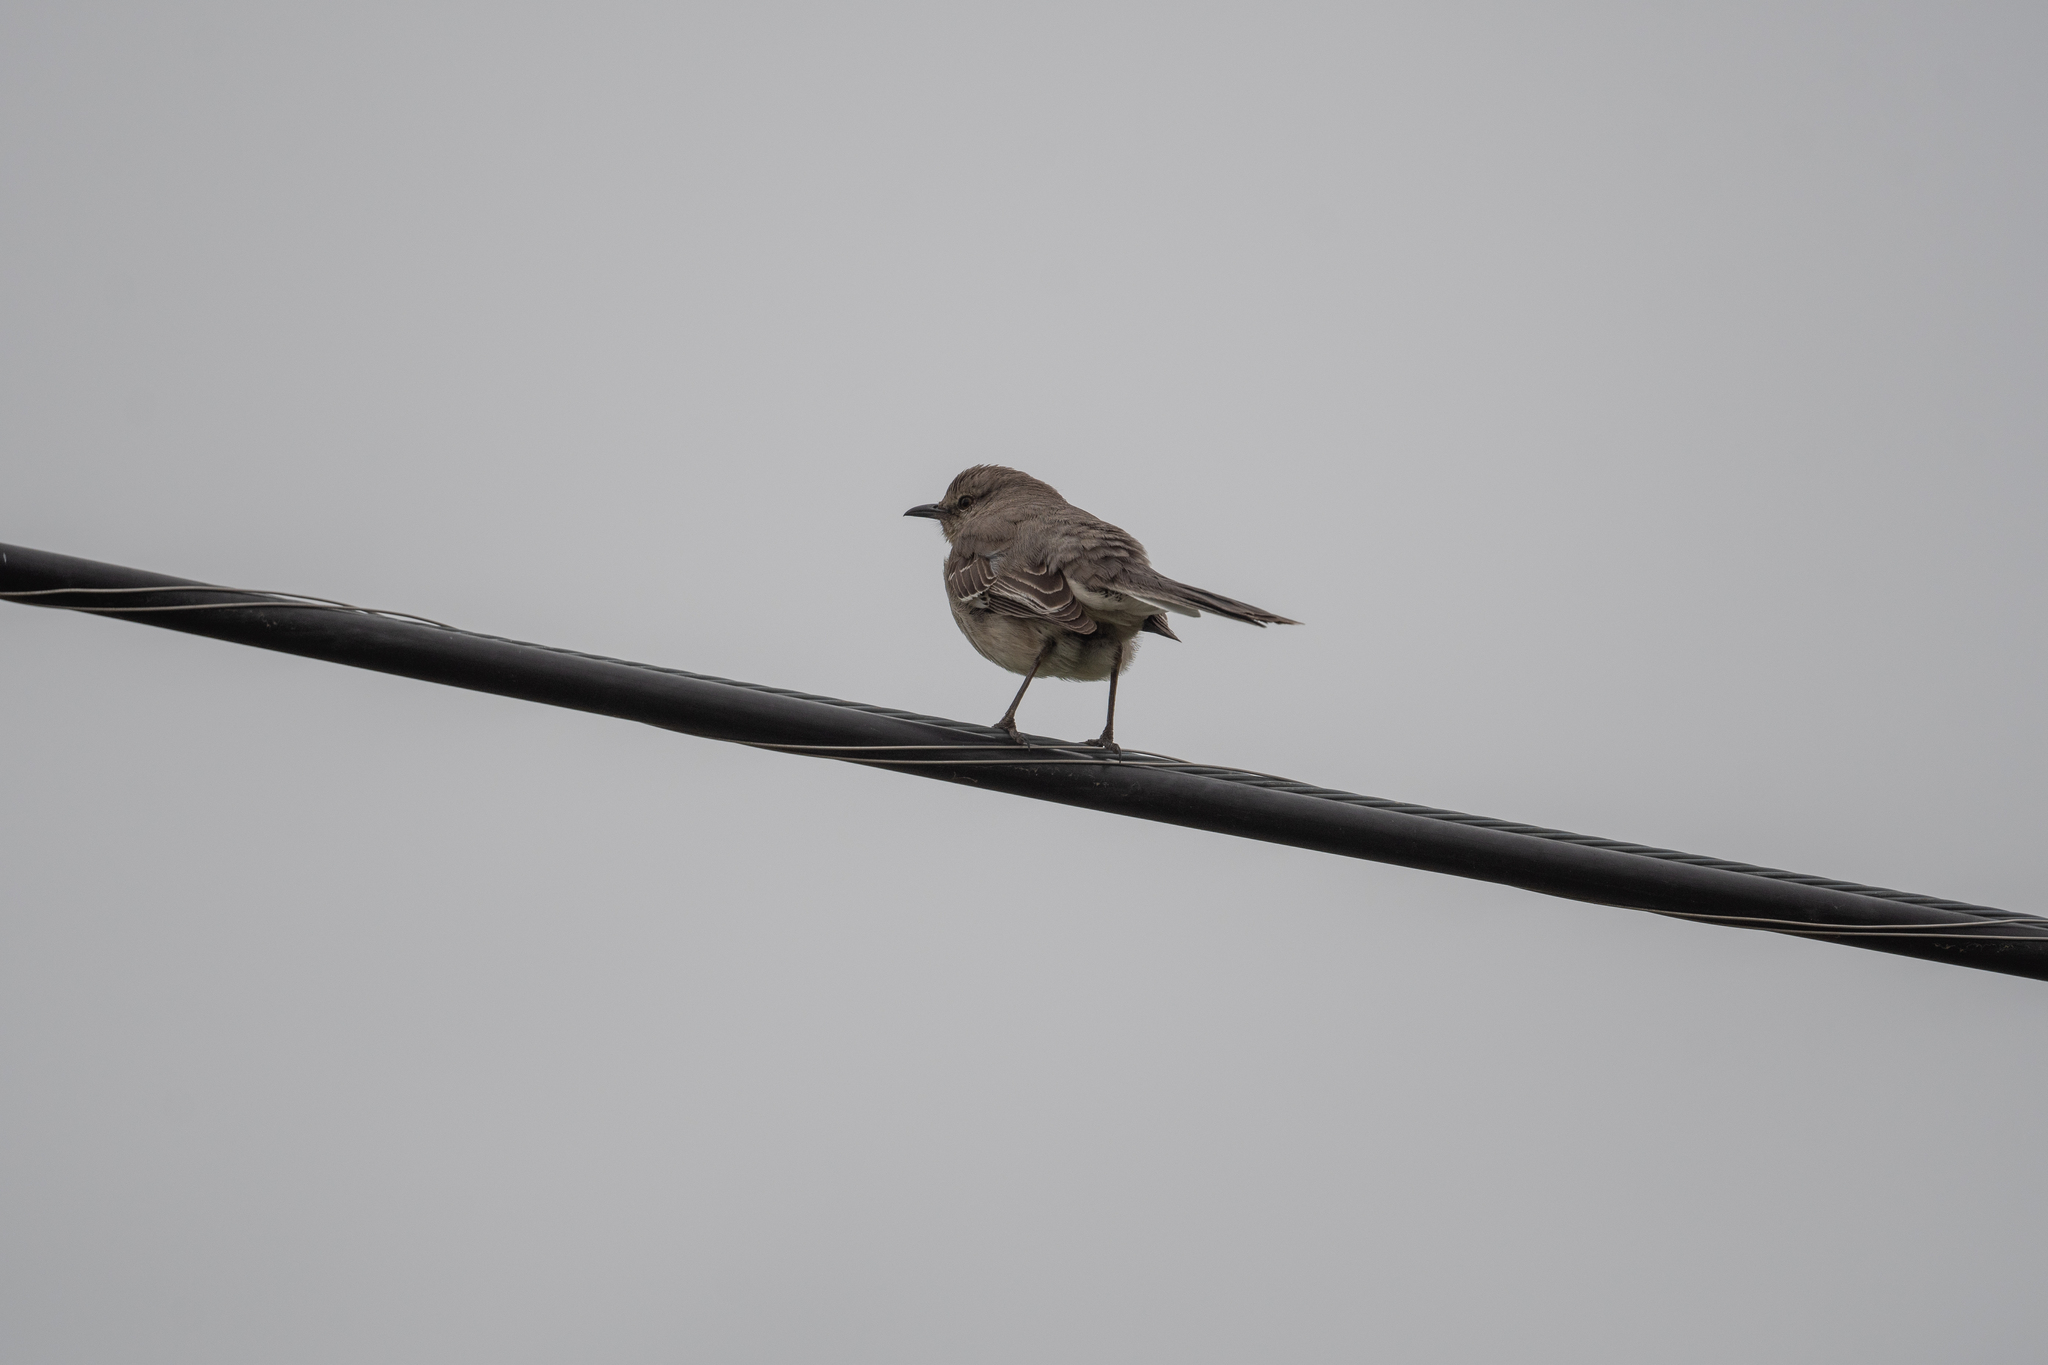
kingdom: Animalia
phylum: Chordata
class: Aves
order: Passeriformes
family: Mimidae
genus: Mimus
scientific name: Mimus polyglottos
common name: Northern mockingbird
